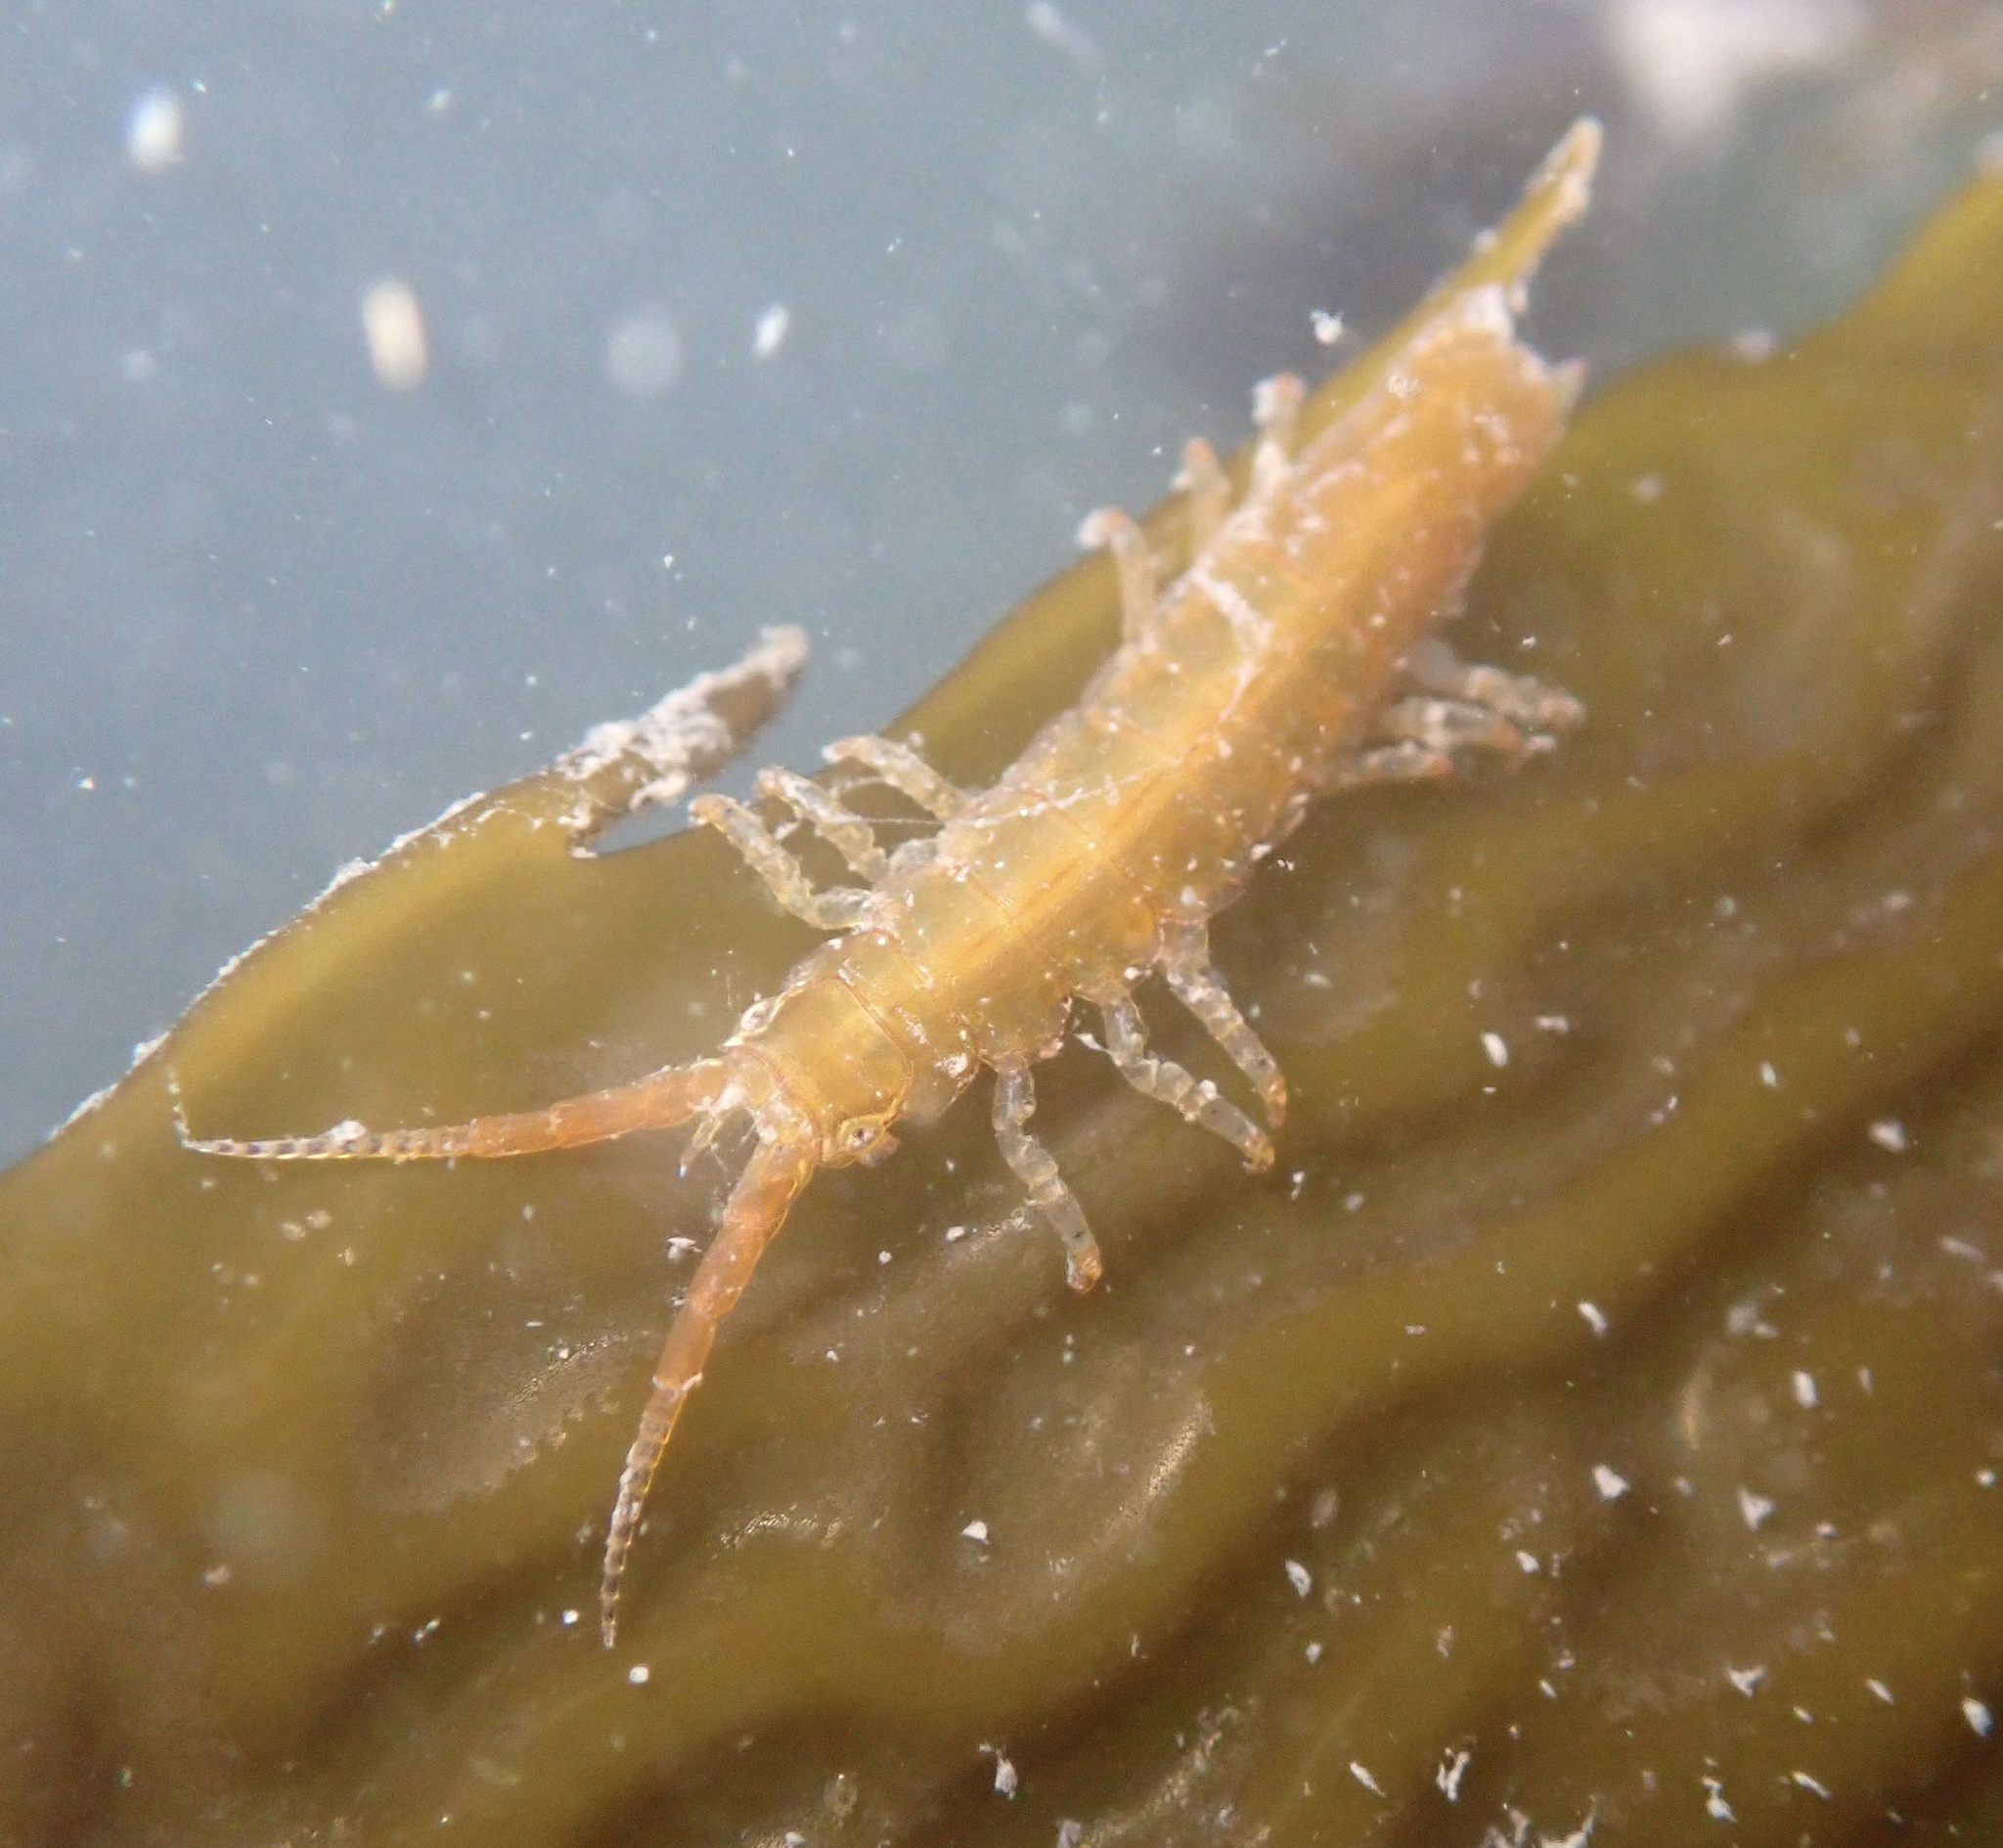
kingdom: Animalia
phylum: Arthropoda
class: Malacostraca
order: Isopoda
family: Idoteidae
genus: Pentidotea
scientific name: Pentidotea resecata
